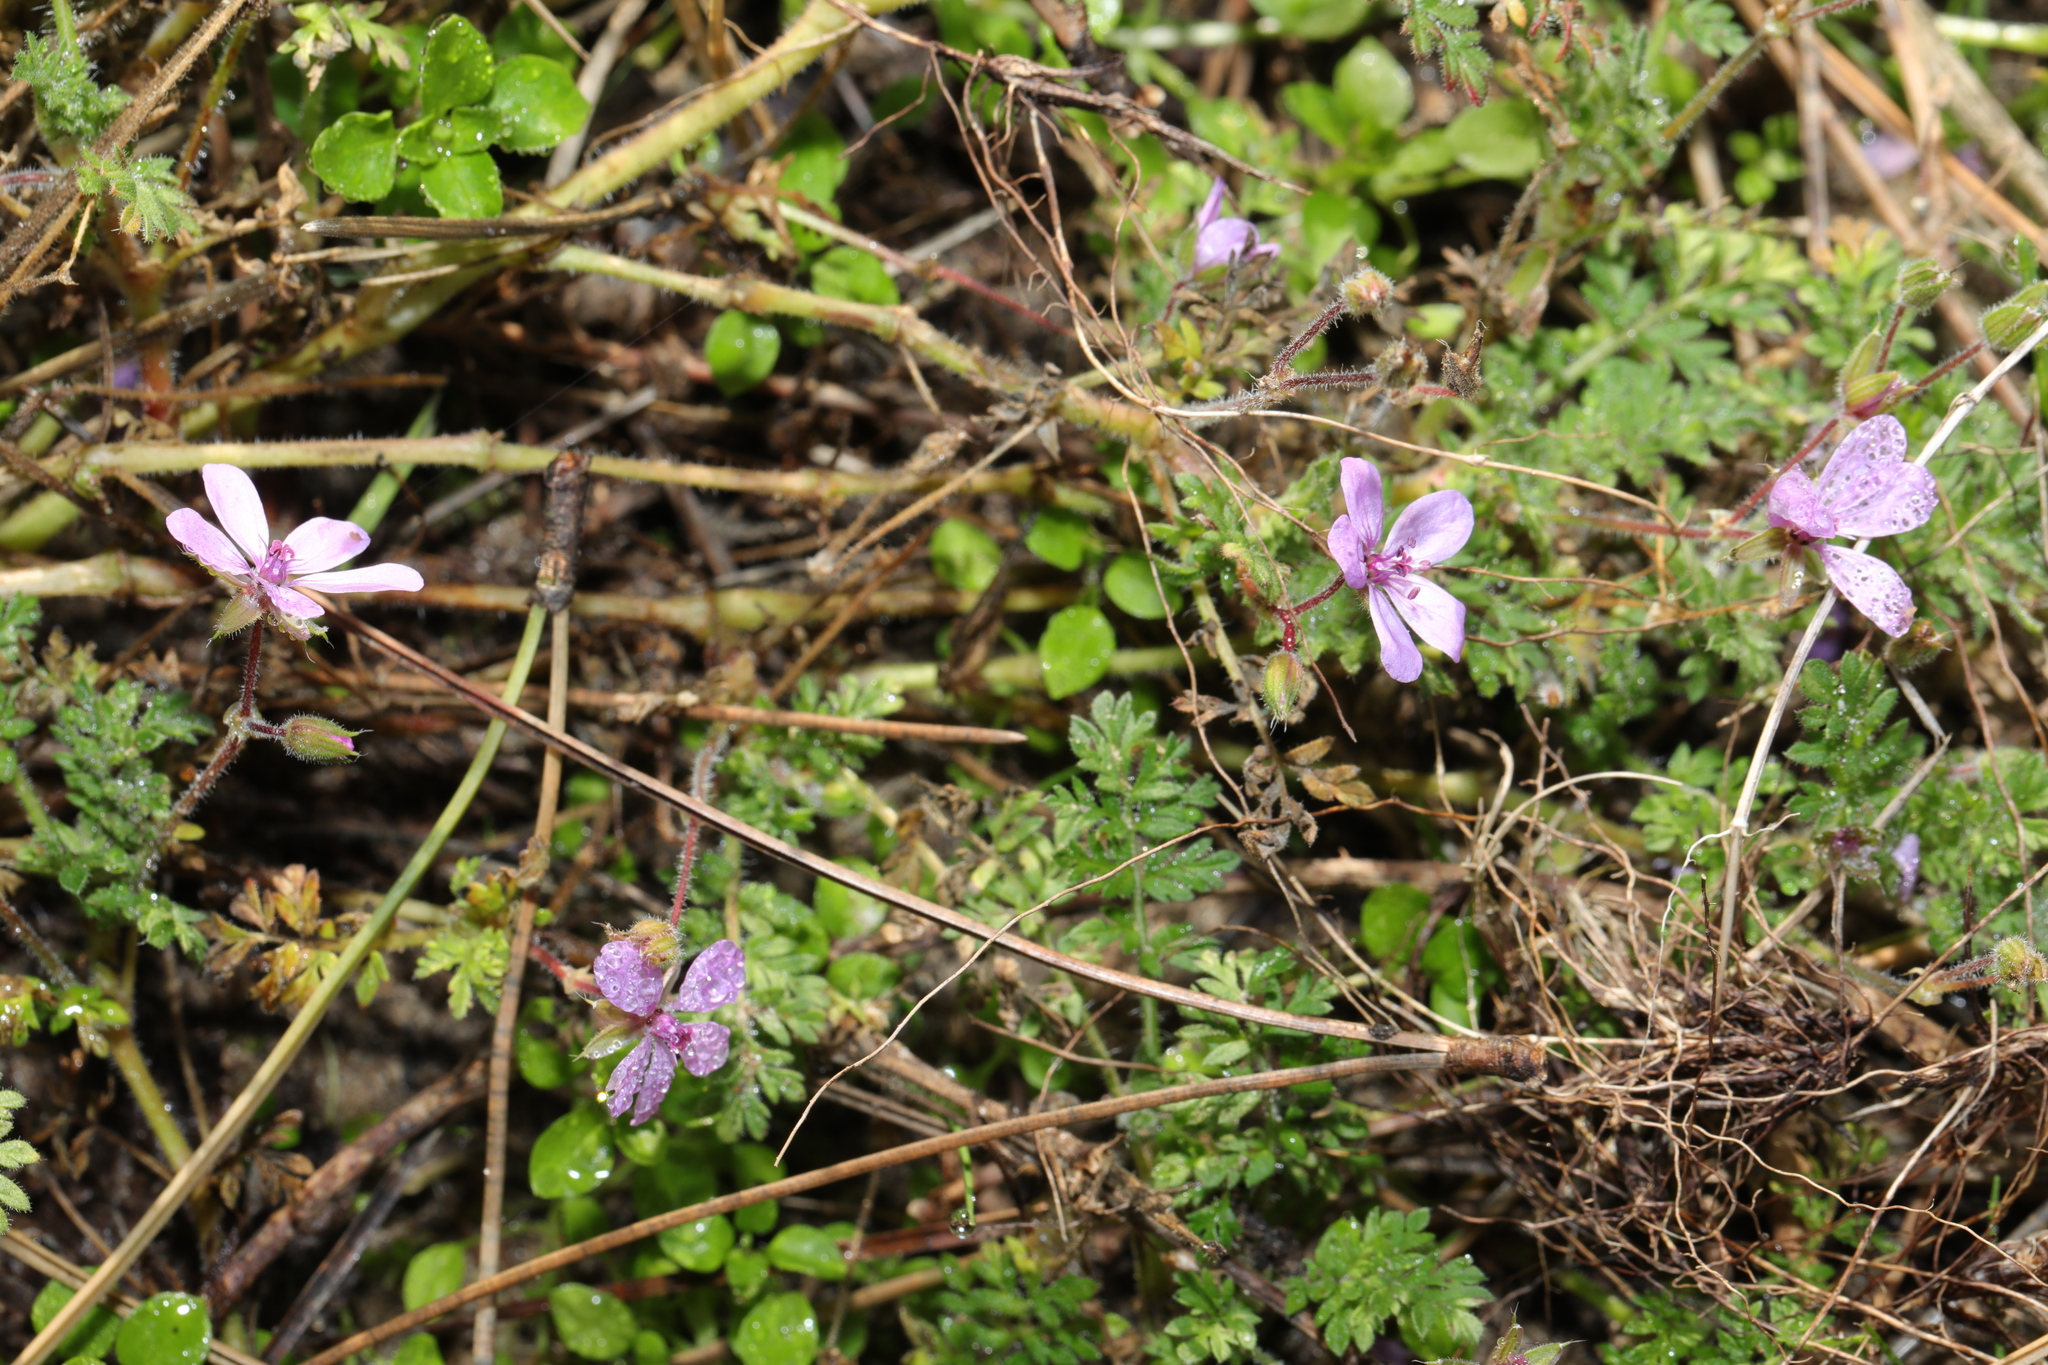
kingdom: Plantae
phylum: Tracheophyta
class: Magnoliopsida
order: Geraniales
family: Geraniaceae
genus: Erodium
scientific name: Erodium cicutarium
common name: Common stork's-bill
